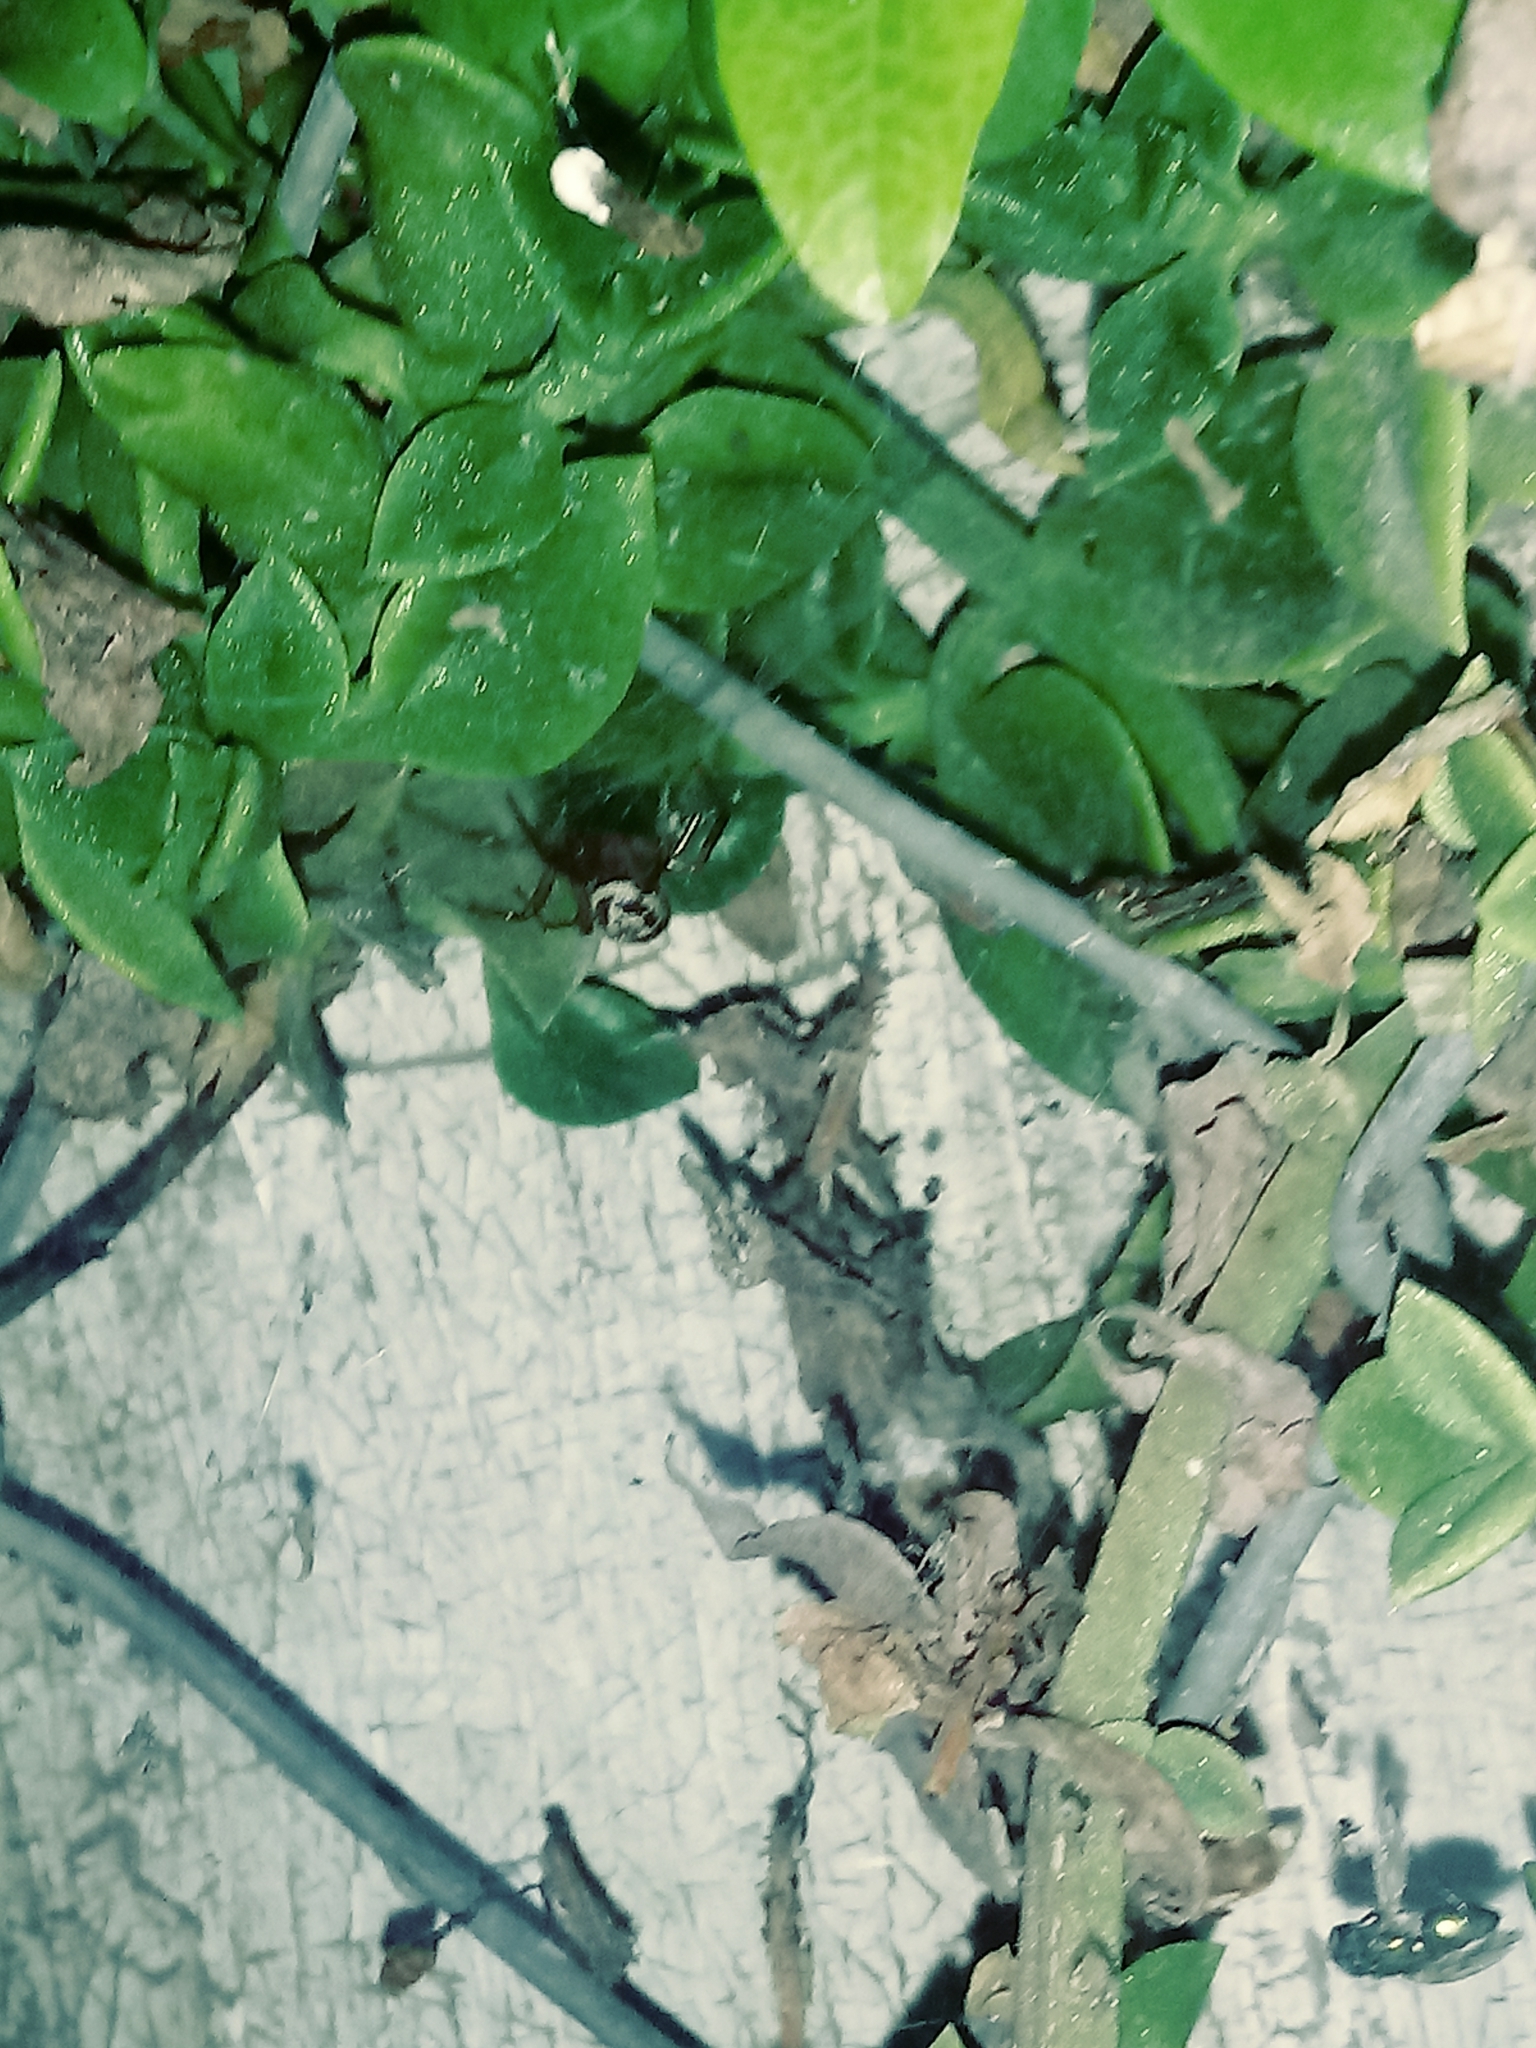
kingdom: Animalia
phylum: Arthropoda
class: Arachnida
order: Araneae
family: Theridiidae
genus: Steatoda
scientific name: Steatoda nobilis
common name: Cobweb weaver
